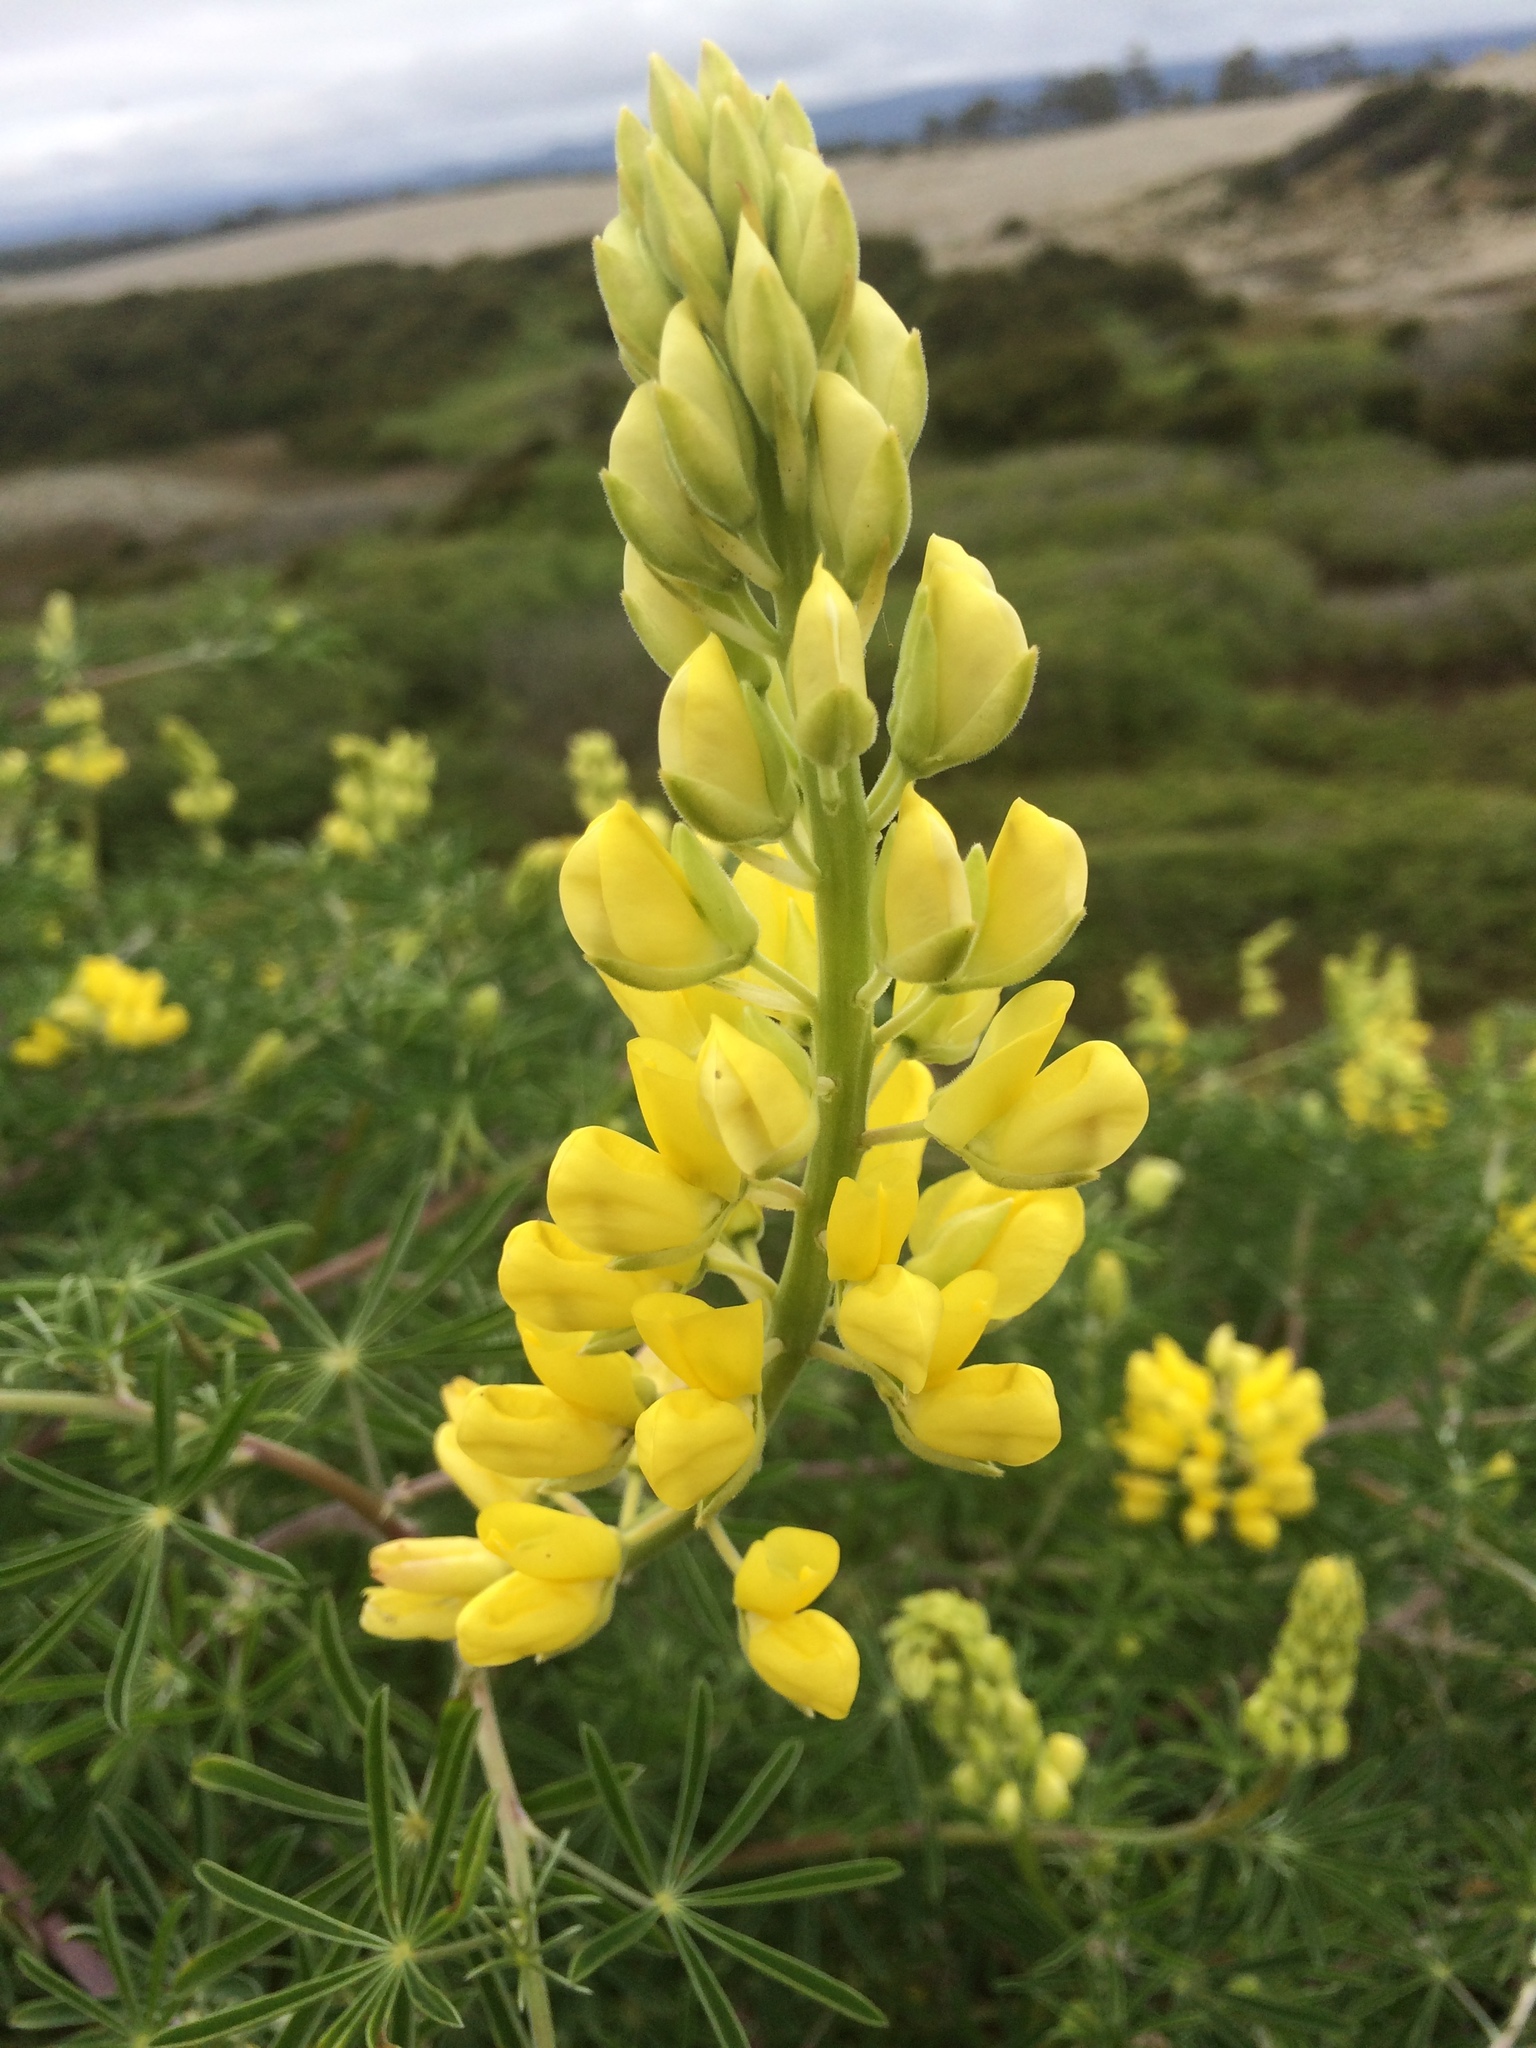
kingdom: Plantae
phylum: Tracheophyta
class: Magnoliopsida
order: Fabales
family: Fabaceae
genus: Lupinus
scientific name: Lupinus arboreus
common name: Yellow bush lupine
